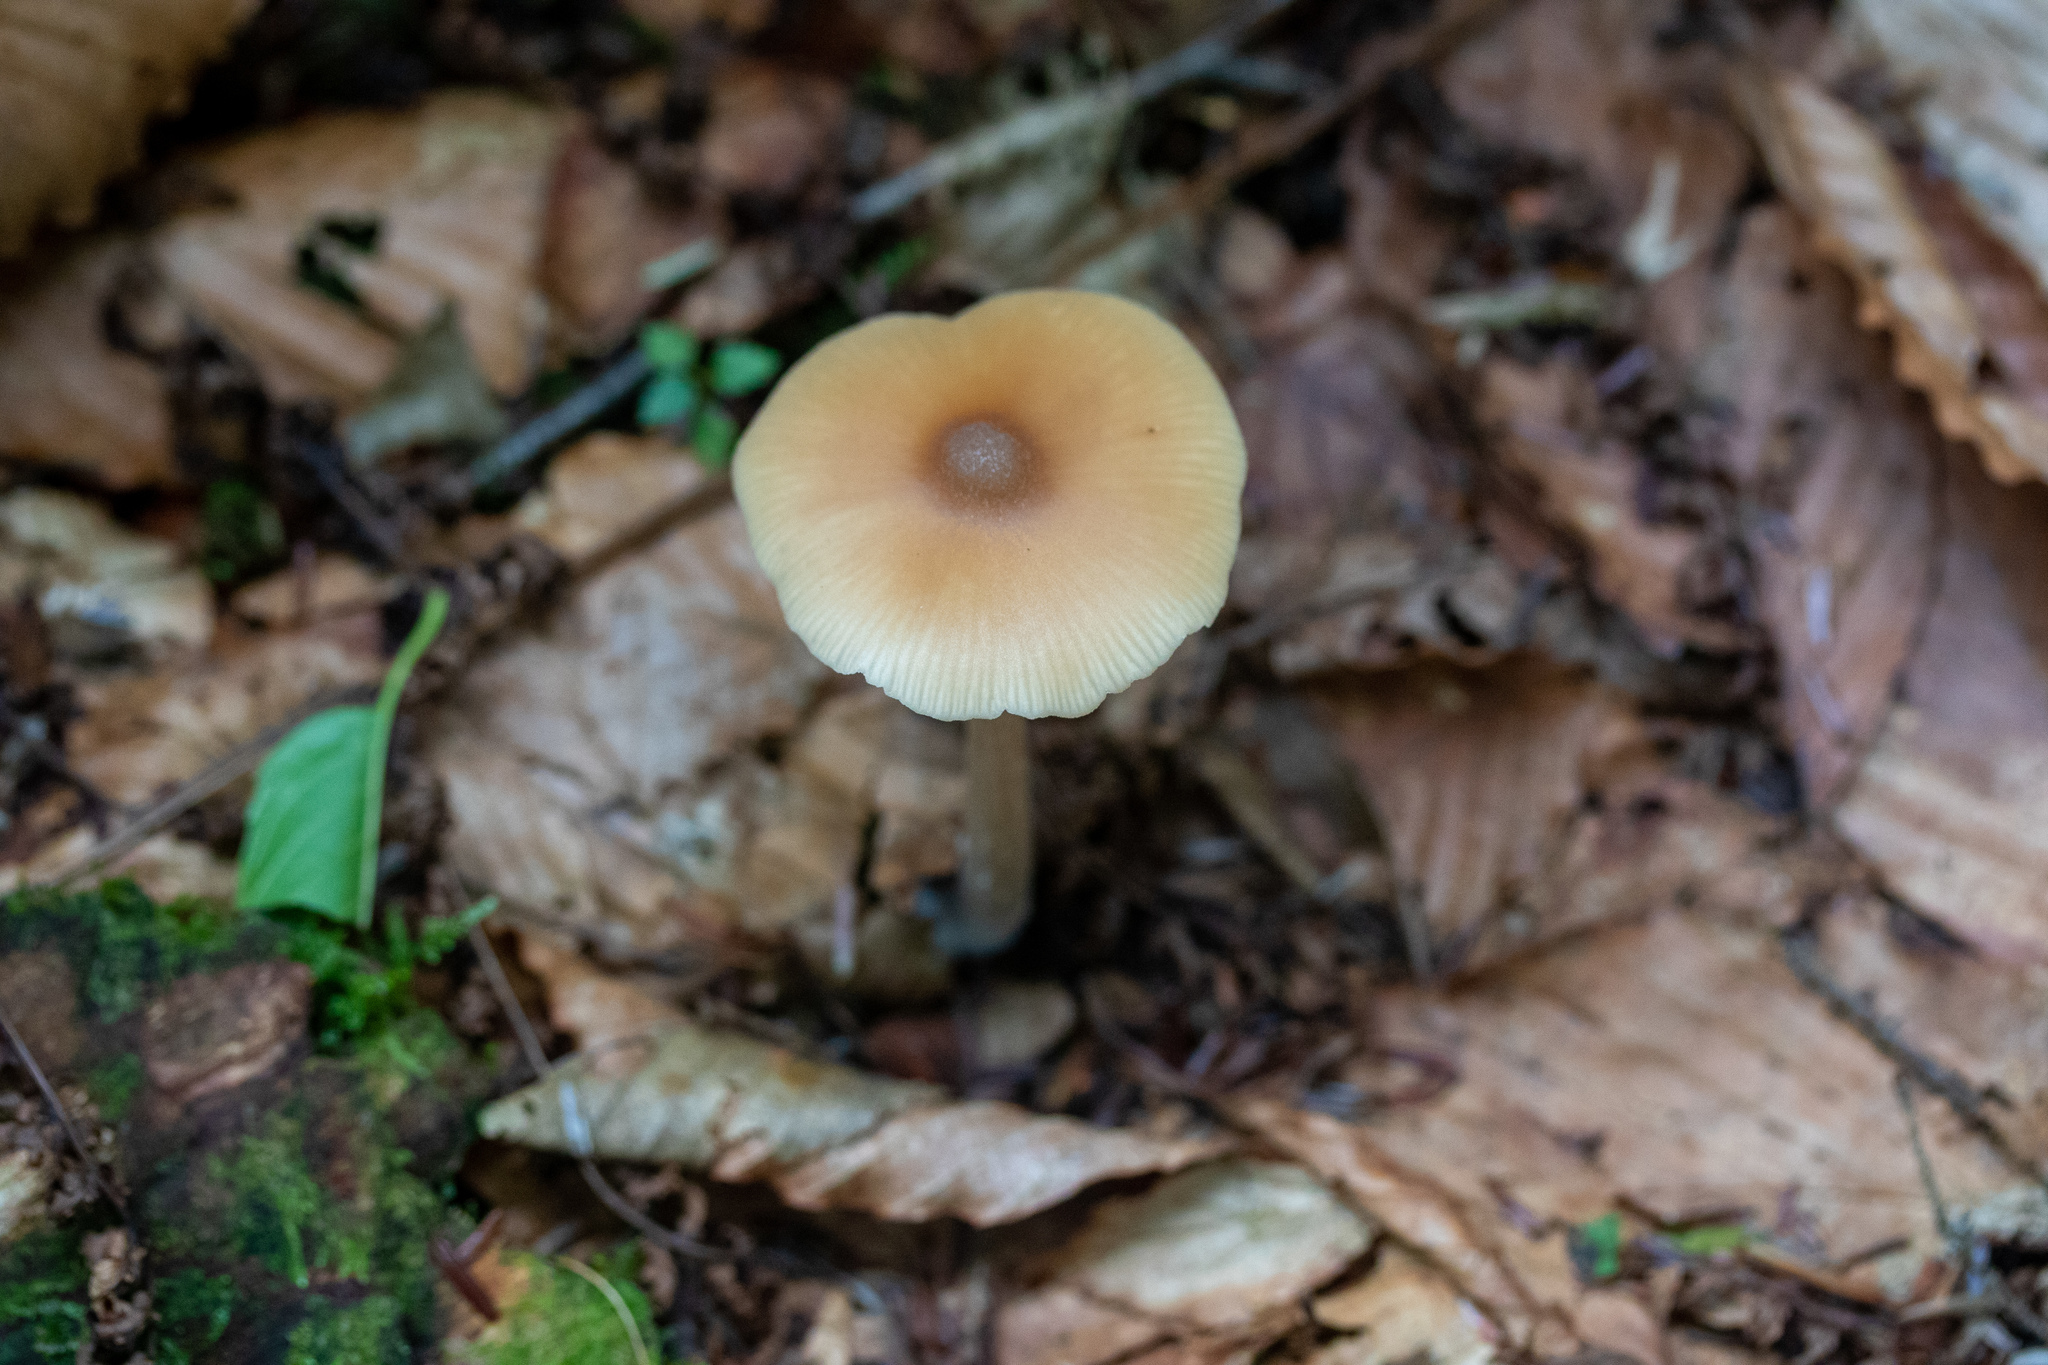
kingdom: Fungi
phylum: Basidiomycota
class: Agaricomycetes
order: Agaricales
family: Entolomataceae
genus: Entoloma
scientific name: Entoloma strictius
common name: Straight-stalked entoloma
